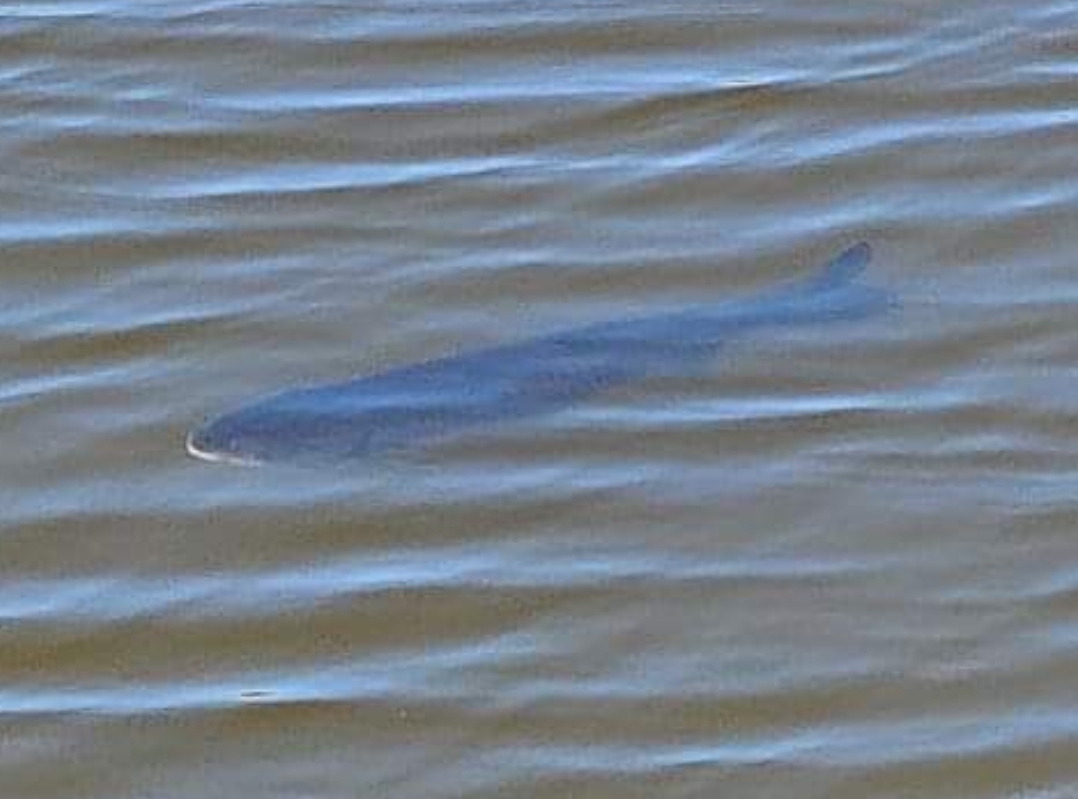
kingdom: Animalia
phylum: Chordata
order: Cypriniformes
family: Cyprinidae
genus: Ctenopharyngodon
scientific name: Ctenopharyngodon idella
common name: Grass carp
